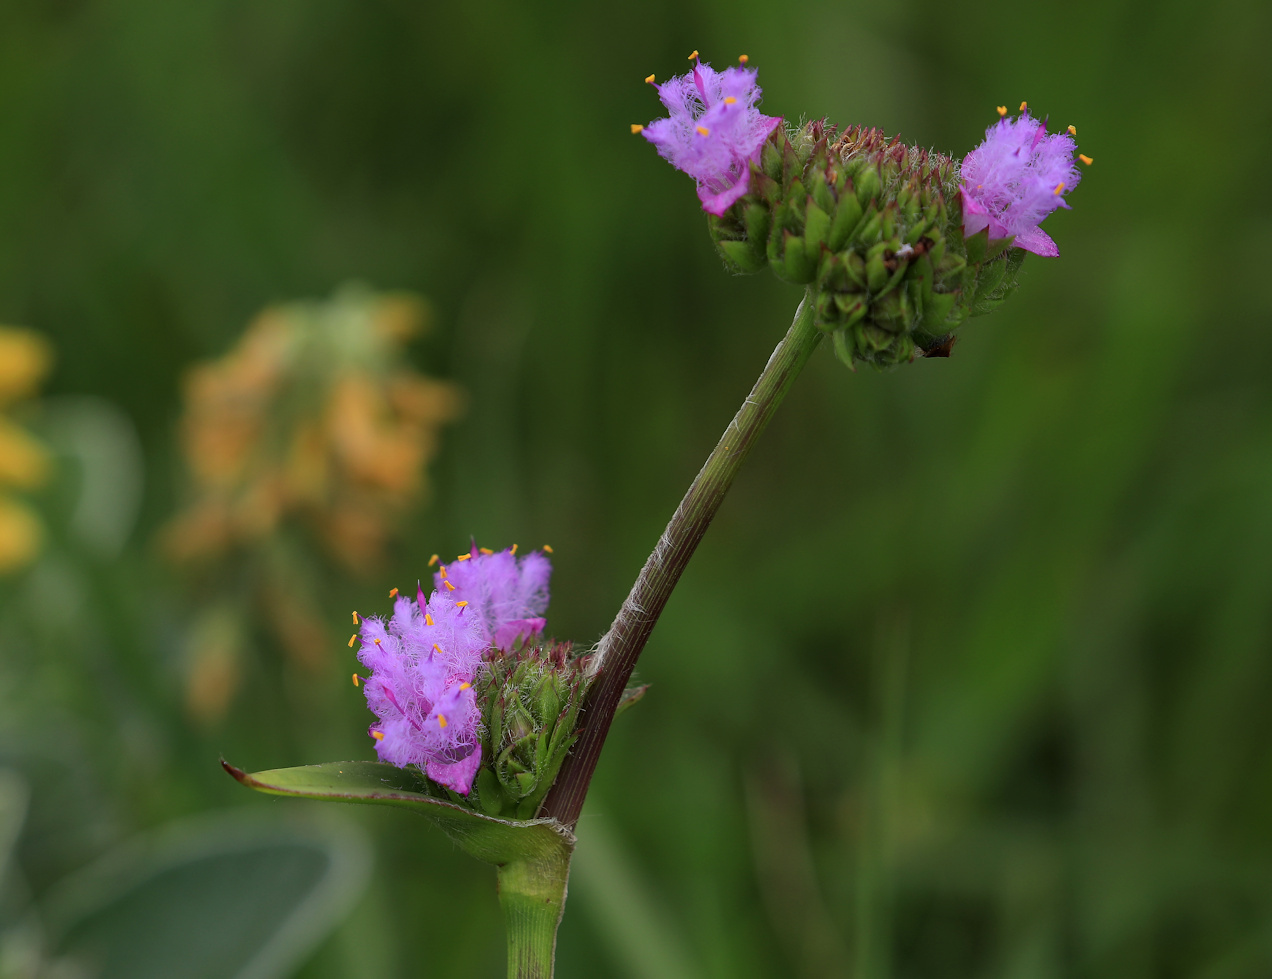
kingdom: Plantae
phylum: Tracheophyta
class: Liliopsida
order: Commelinales
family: Commelinaceae
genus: Cyanotis
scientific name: Cyanotis speciosa
